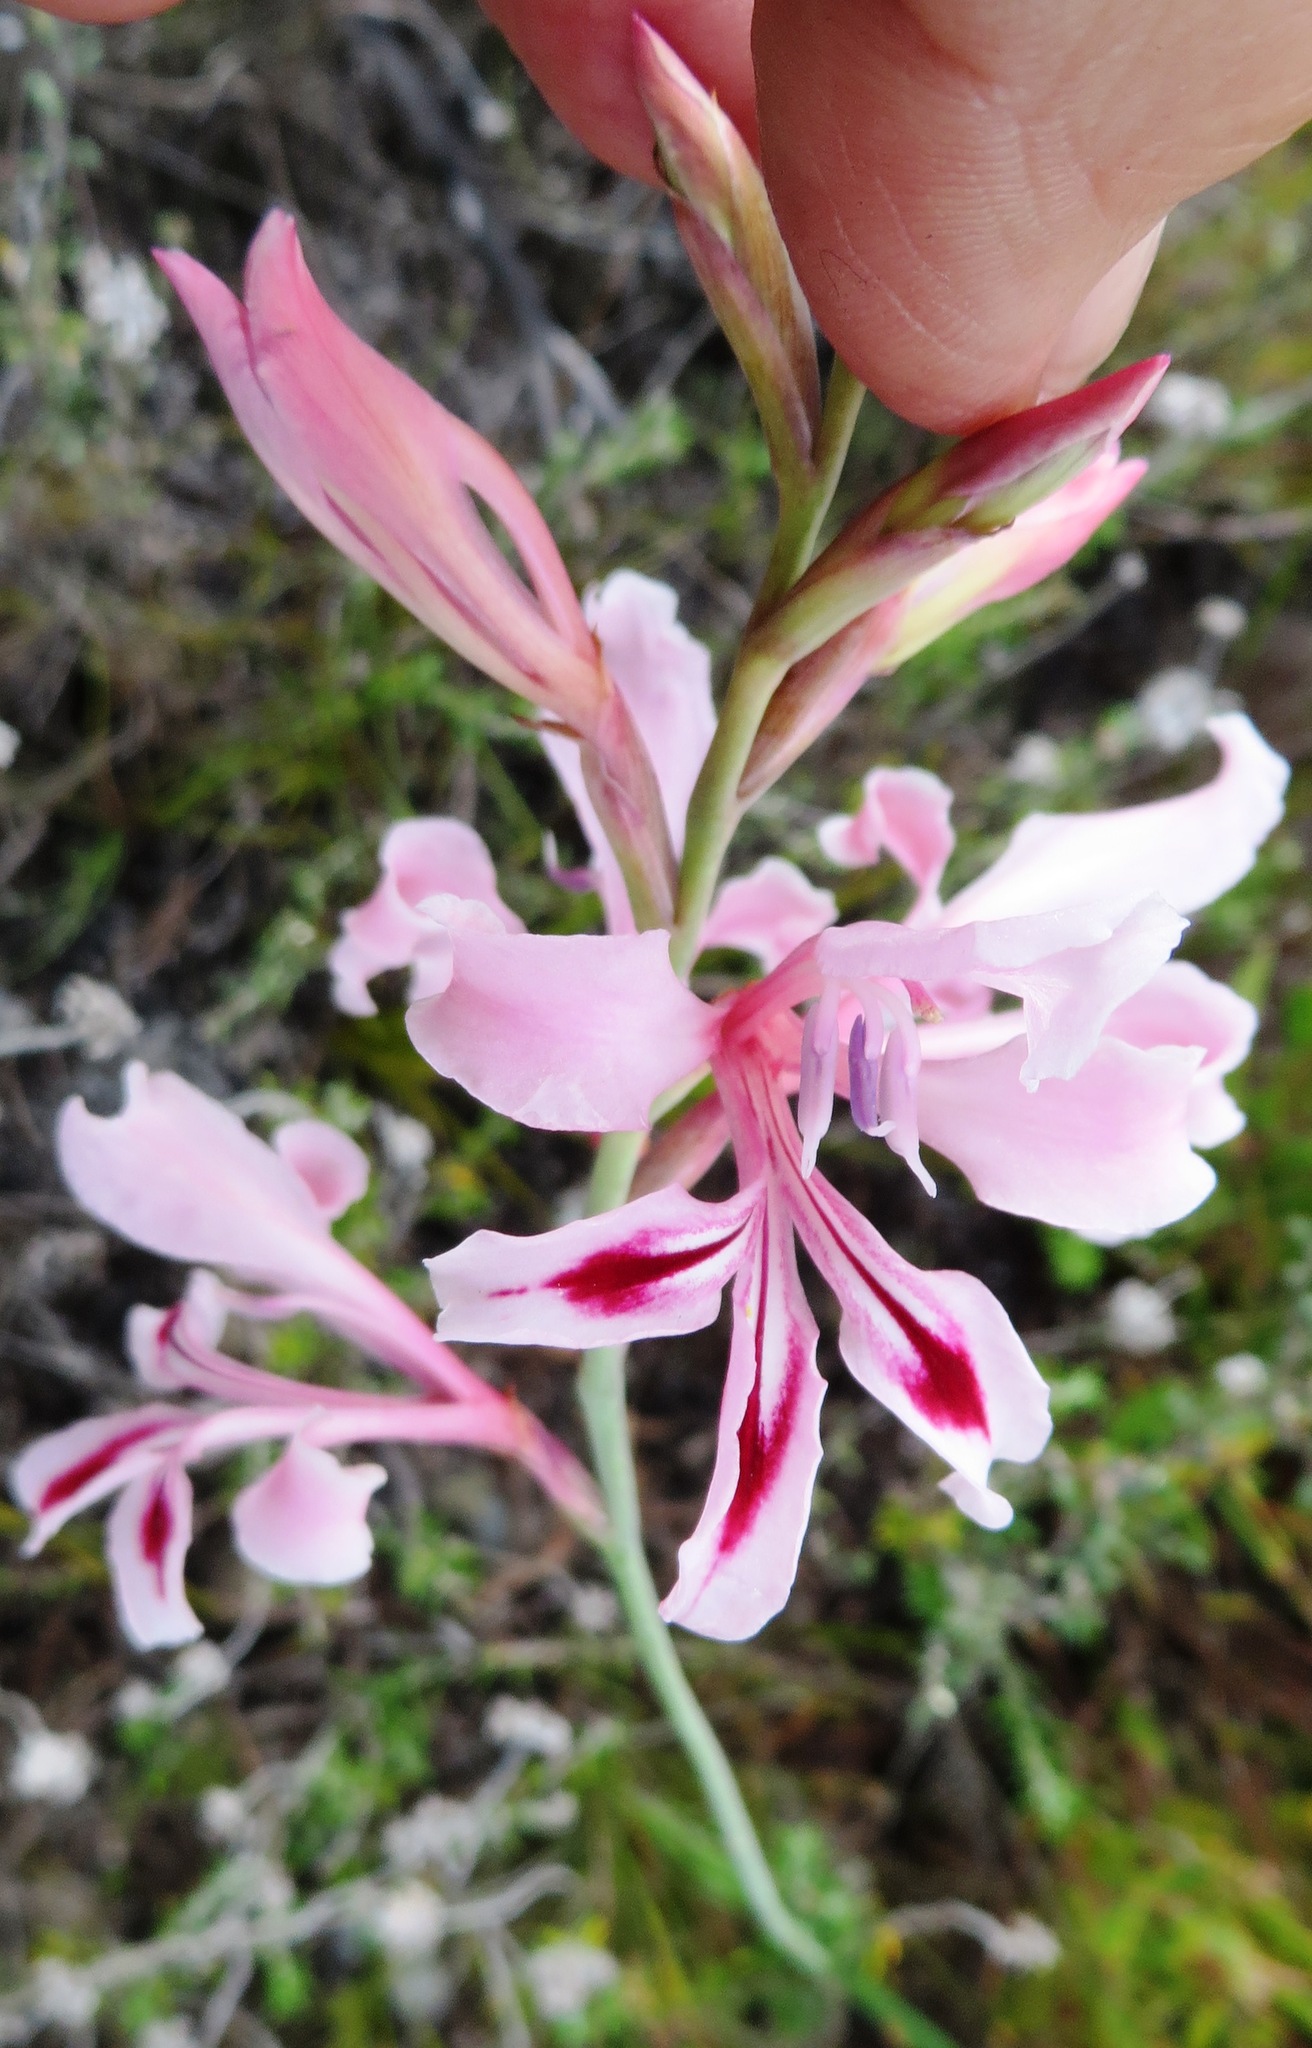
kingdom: Plantae
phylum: Tracheophyta
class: Liliopsida
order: Asparagales
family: Iridaceae
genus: Tritoniopsis
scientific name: Tritoniopsis lata
